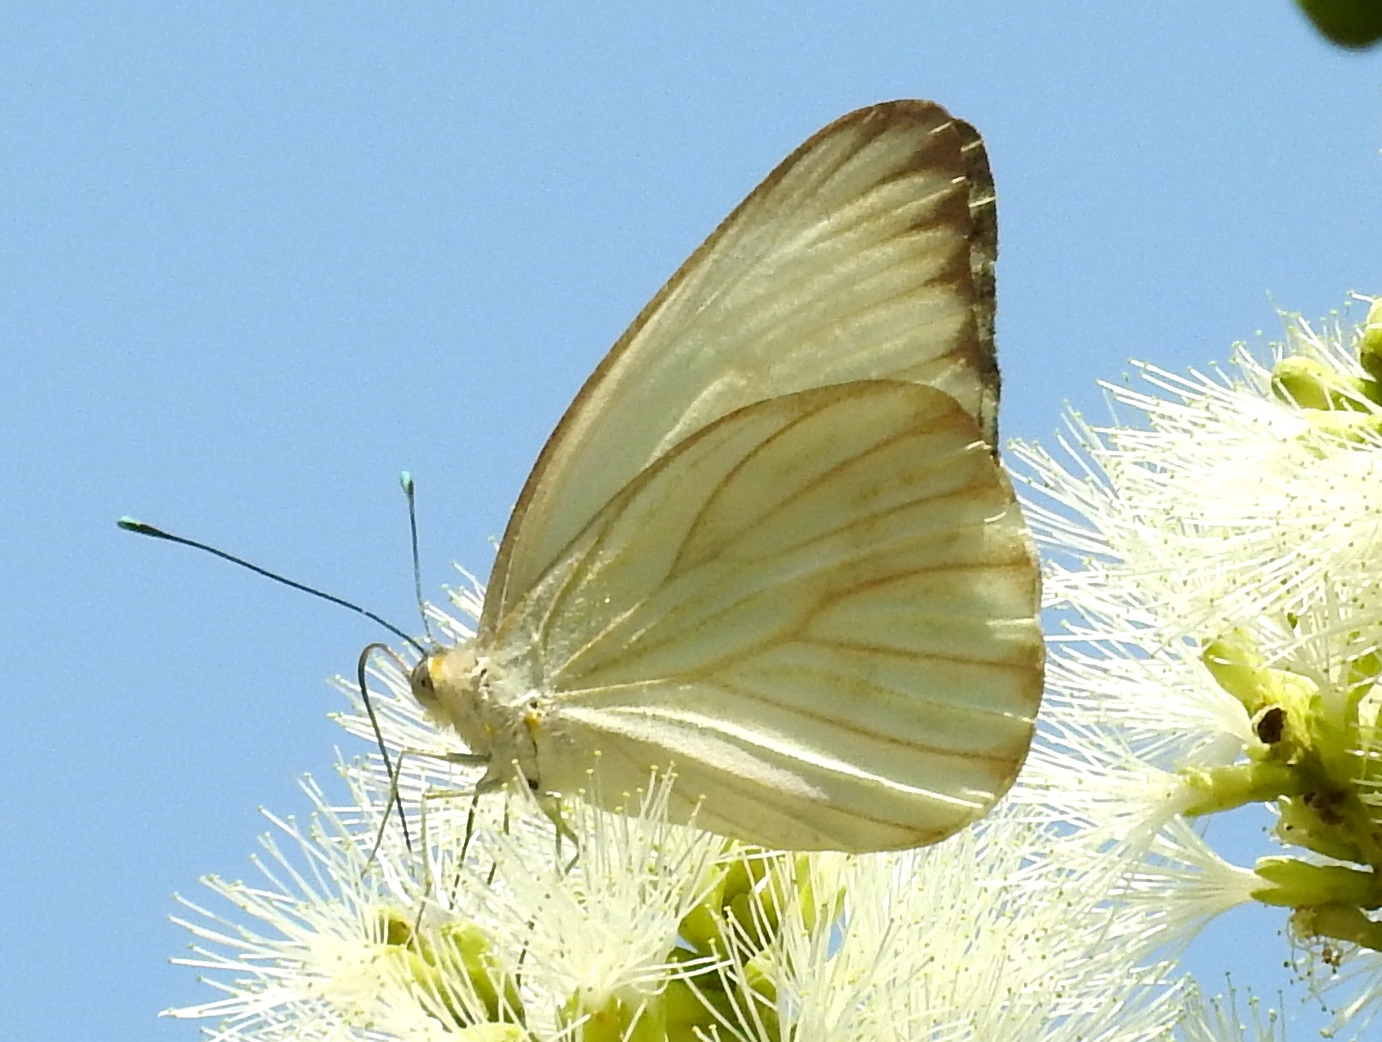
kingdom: Animalia
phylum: Arthropoda
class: Insecta
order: Lepidoptera
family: Pieridae
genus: Ascia
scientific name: Ascia monuste
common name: Great southern white
